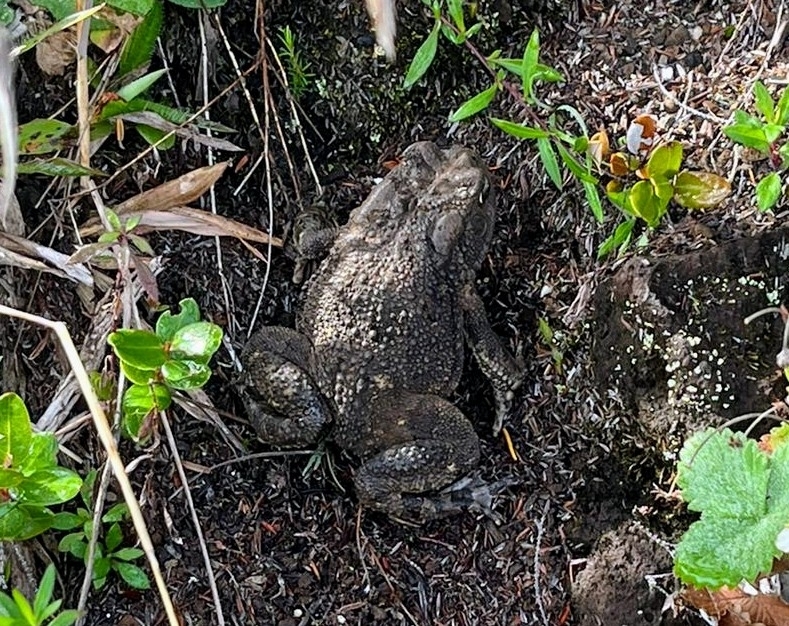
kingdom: Animalia
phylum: Chordata
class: Amphibia
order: Anura
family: Bufonidae
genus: Sclerophrys
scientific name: Sclerophrys gutturalis
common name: African common toad
